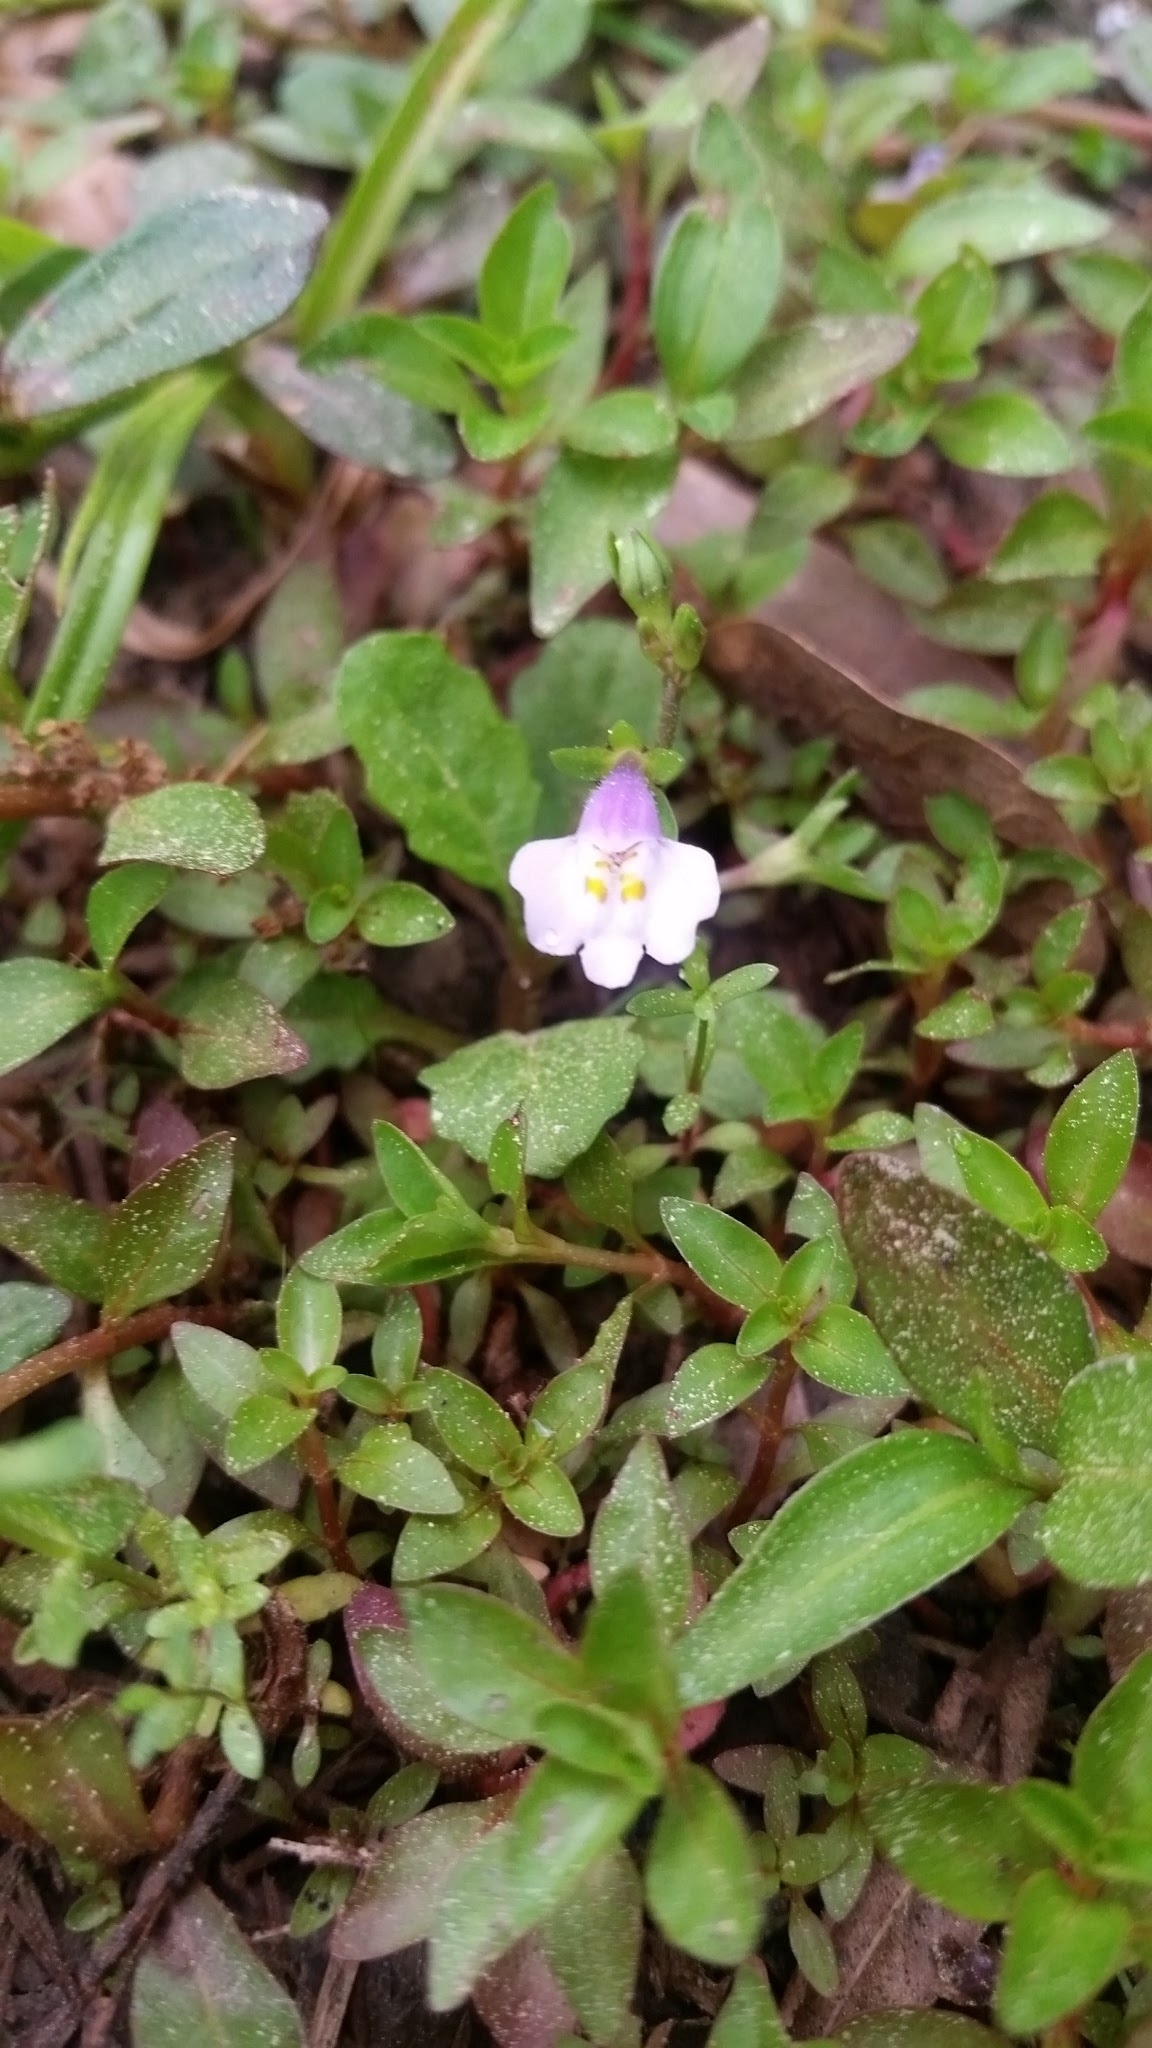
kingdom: Plantae
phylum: Tracheophyta
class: Magnoliopsida
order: Lamiales
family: Mazaceae
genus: Mazus
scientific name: Mazus pumilus
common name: Japanese mazus
